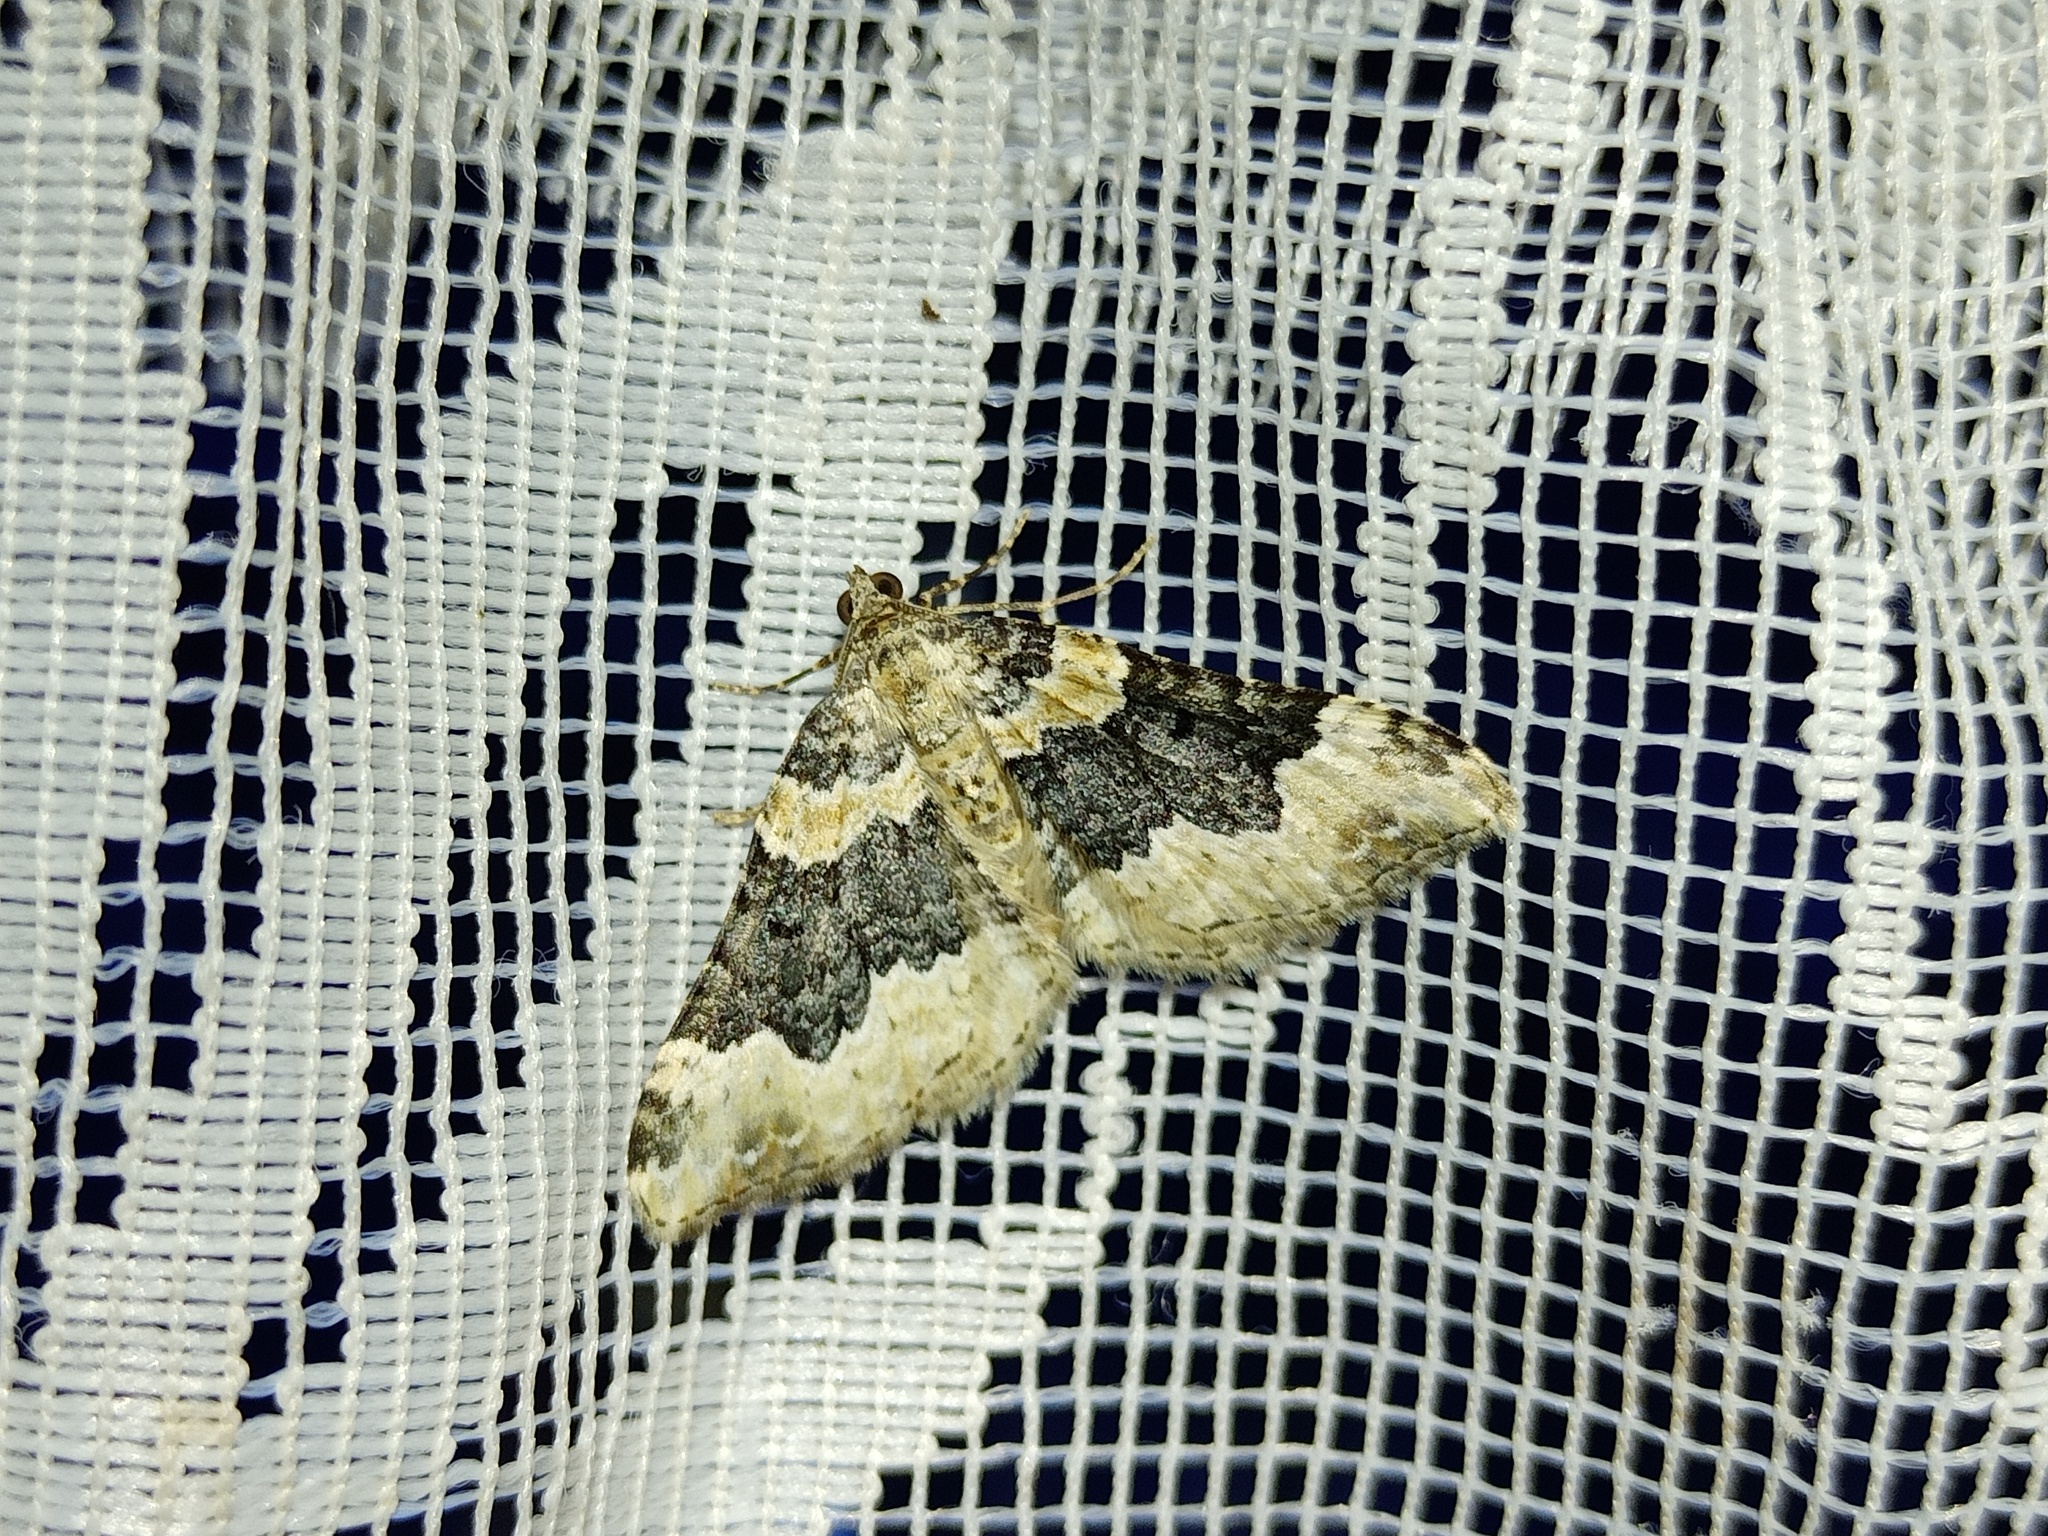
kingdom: Animalia
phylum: Arthropoda
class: Insecta
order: Lepidoptera
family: Geometridae
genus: Epirrhoe
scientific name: Epirrhoe galiata
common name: Galium carpet
